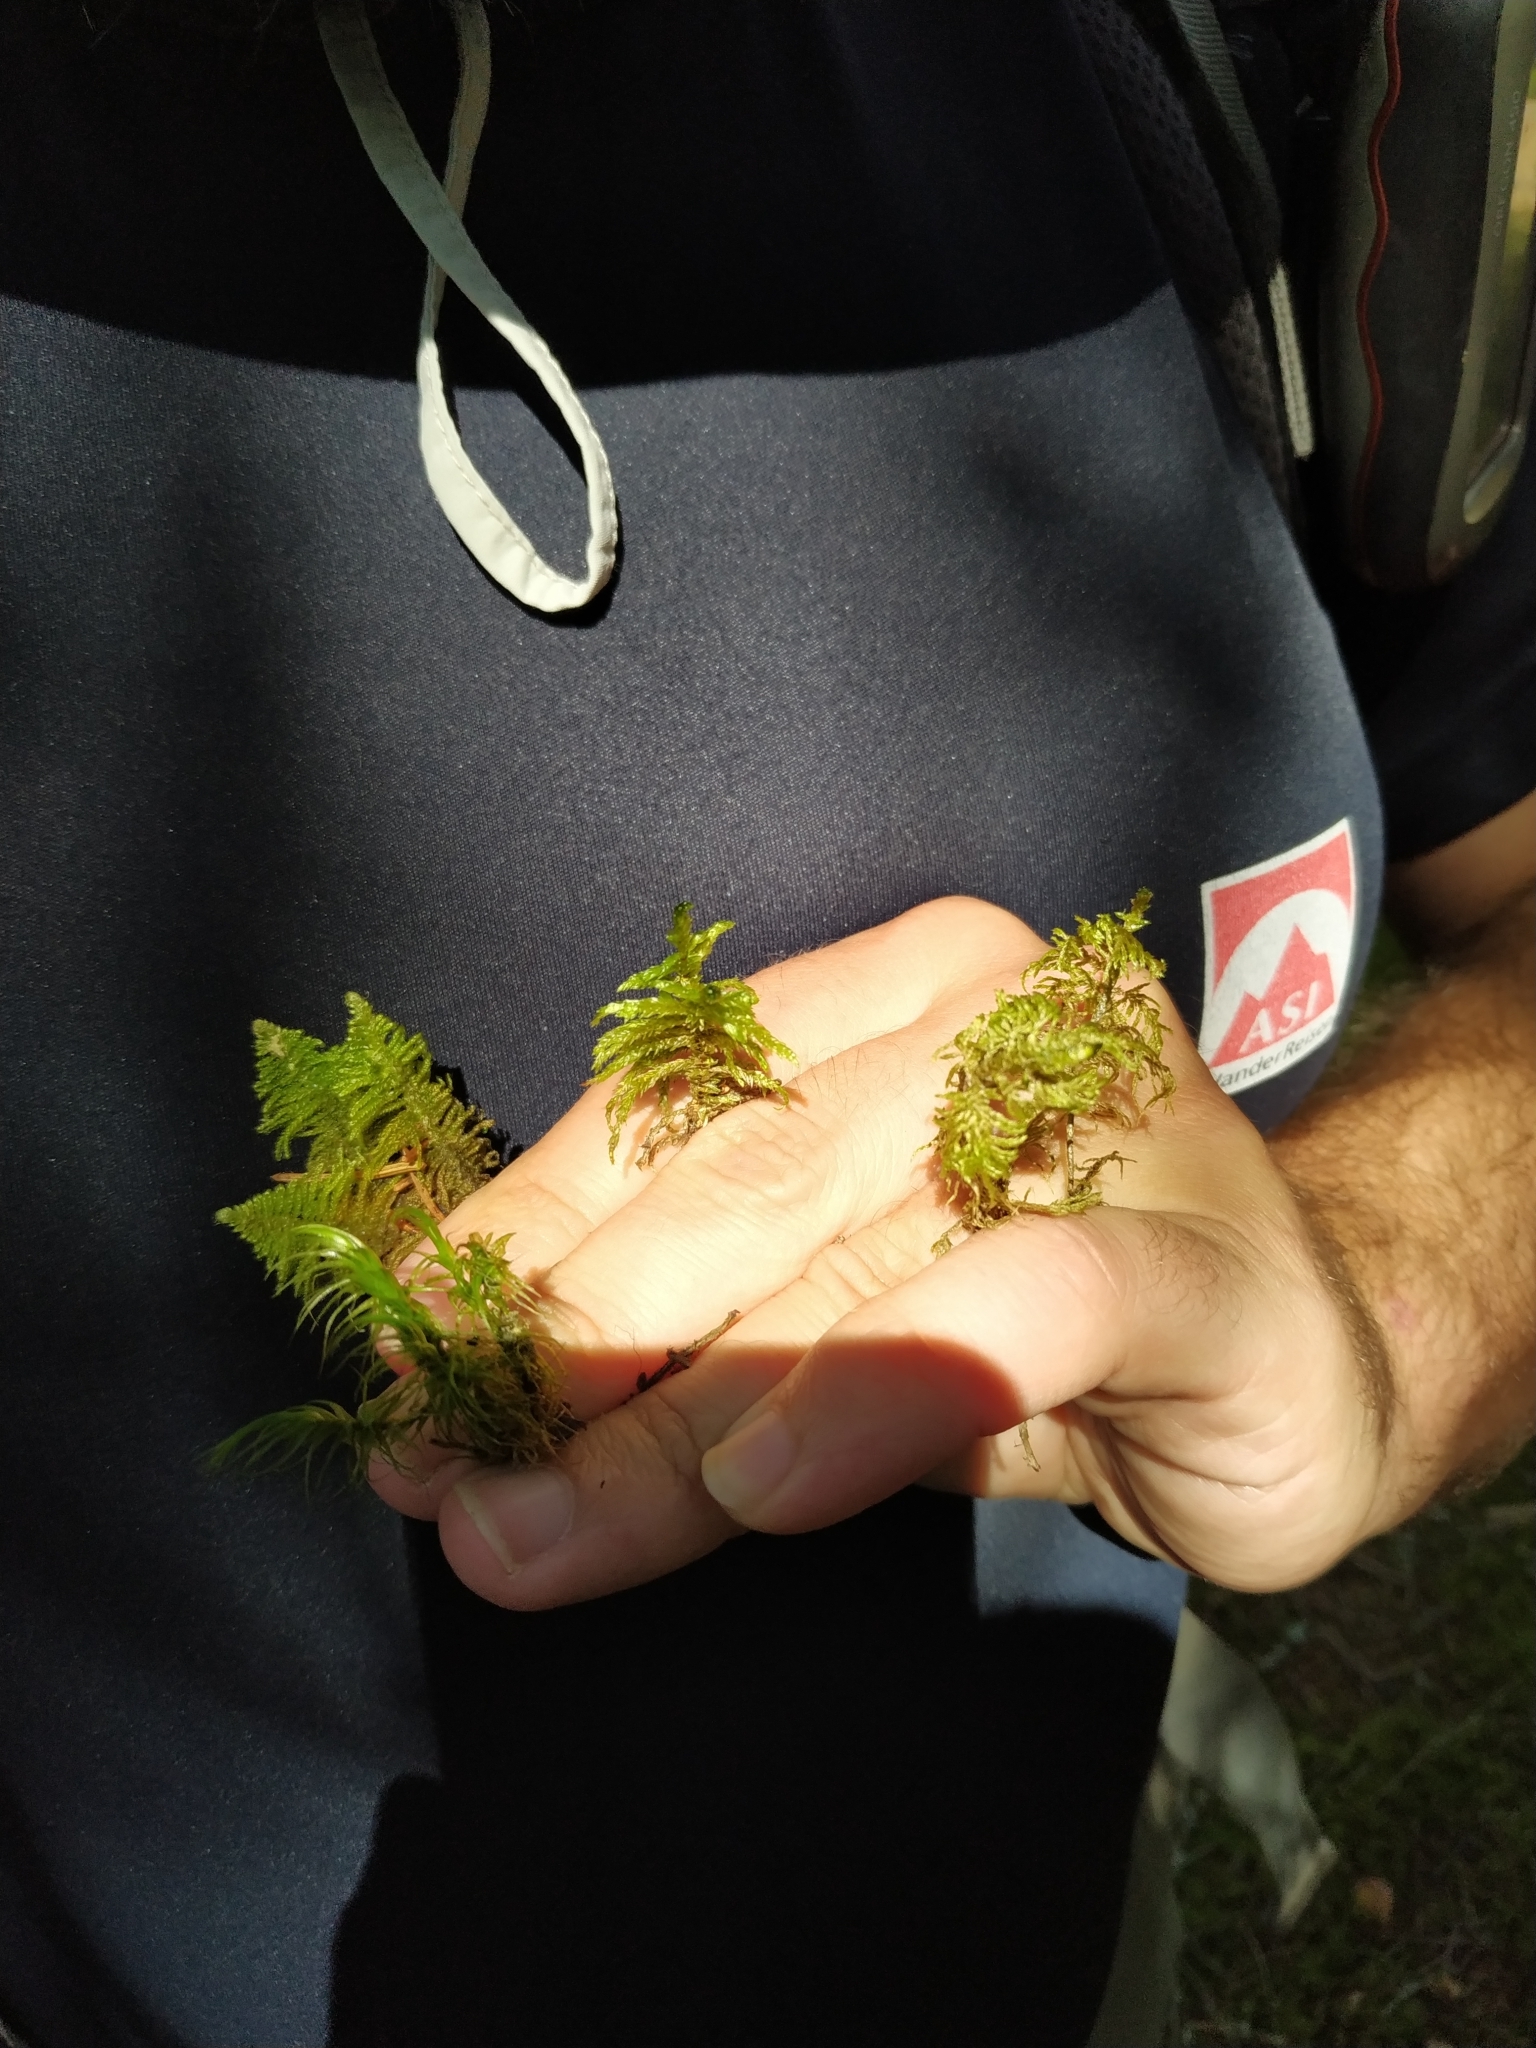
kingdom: Plantae
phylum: Bryophyta
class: Bryopsida
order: Hypnales
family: Hylocomiaceae
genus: Pleurozium
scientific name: Pleurozium schreberi
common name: Red-stemmed feather moss
